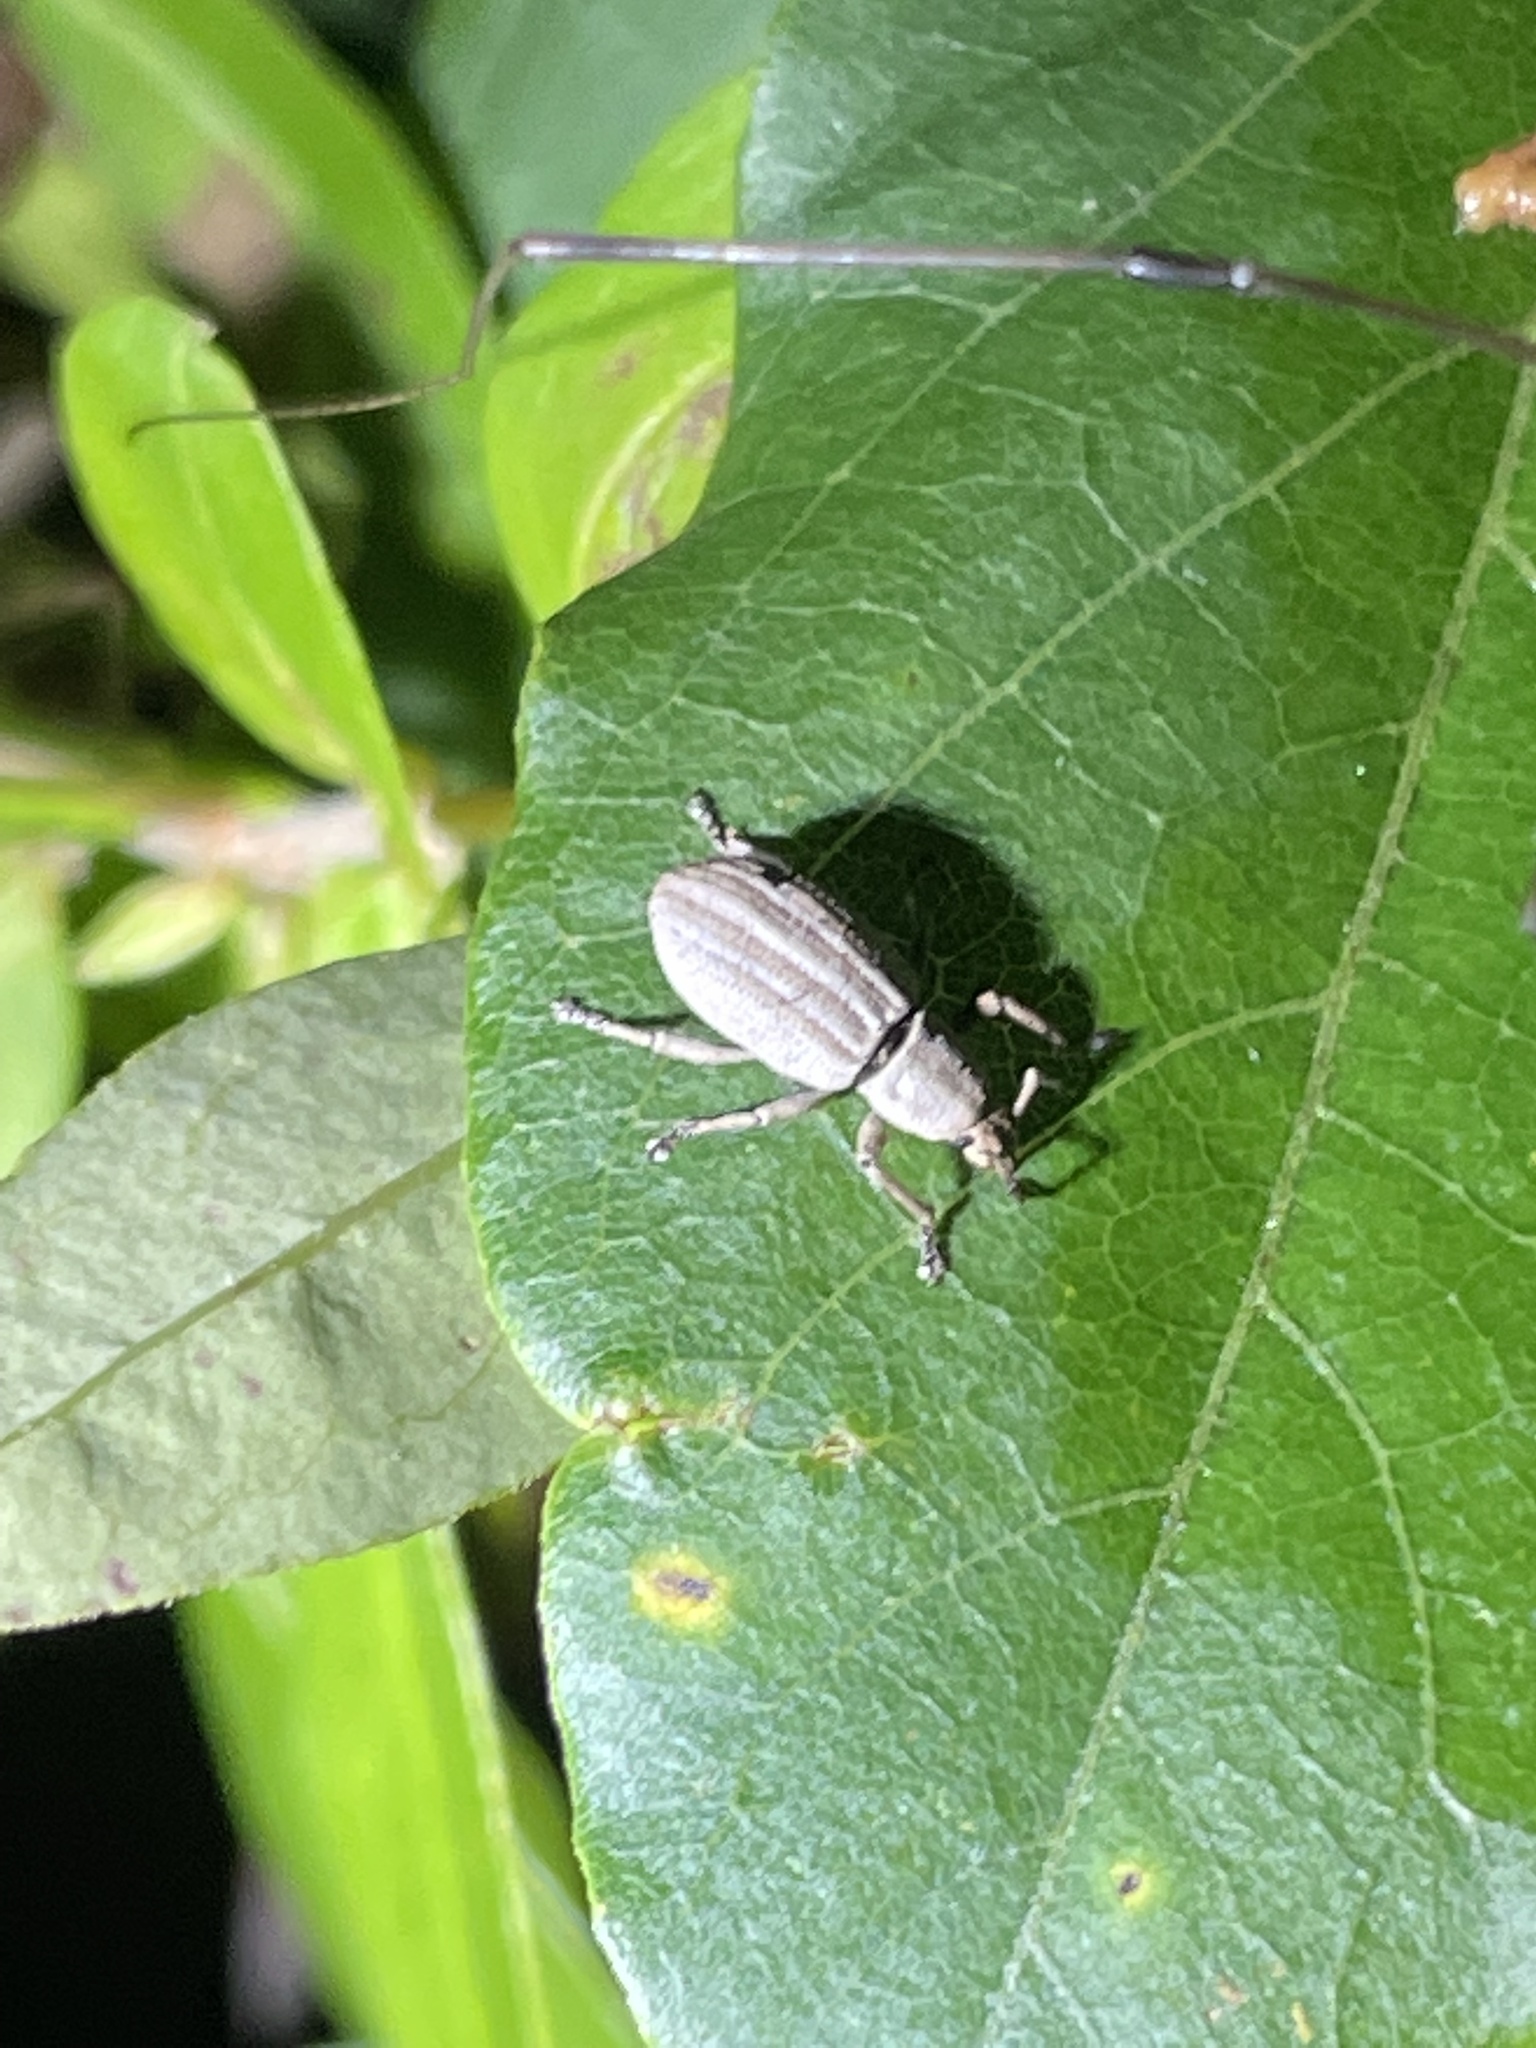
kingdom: Animalia
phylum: Arthropoda
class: Insecta
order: Coleoptera
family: Curculionidae
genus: Aphrastus
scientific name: Aphrastus taeniatus
